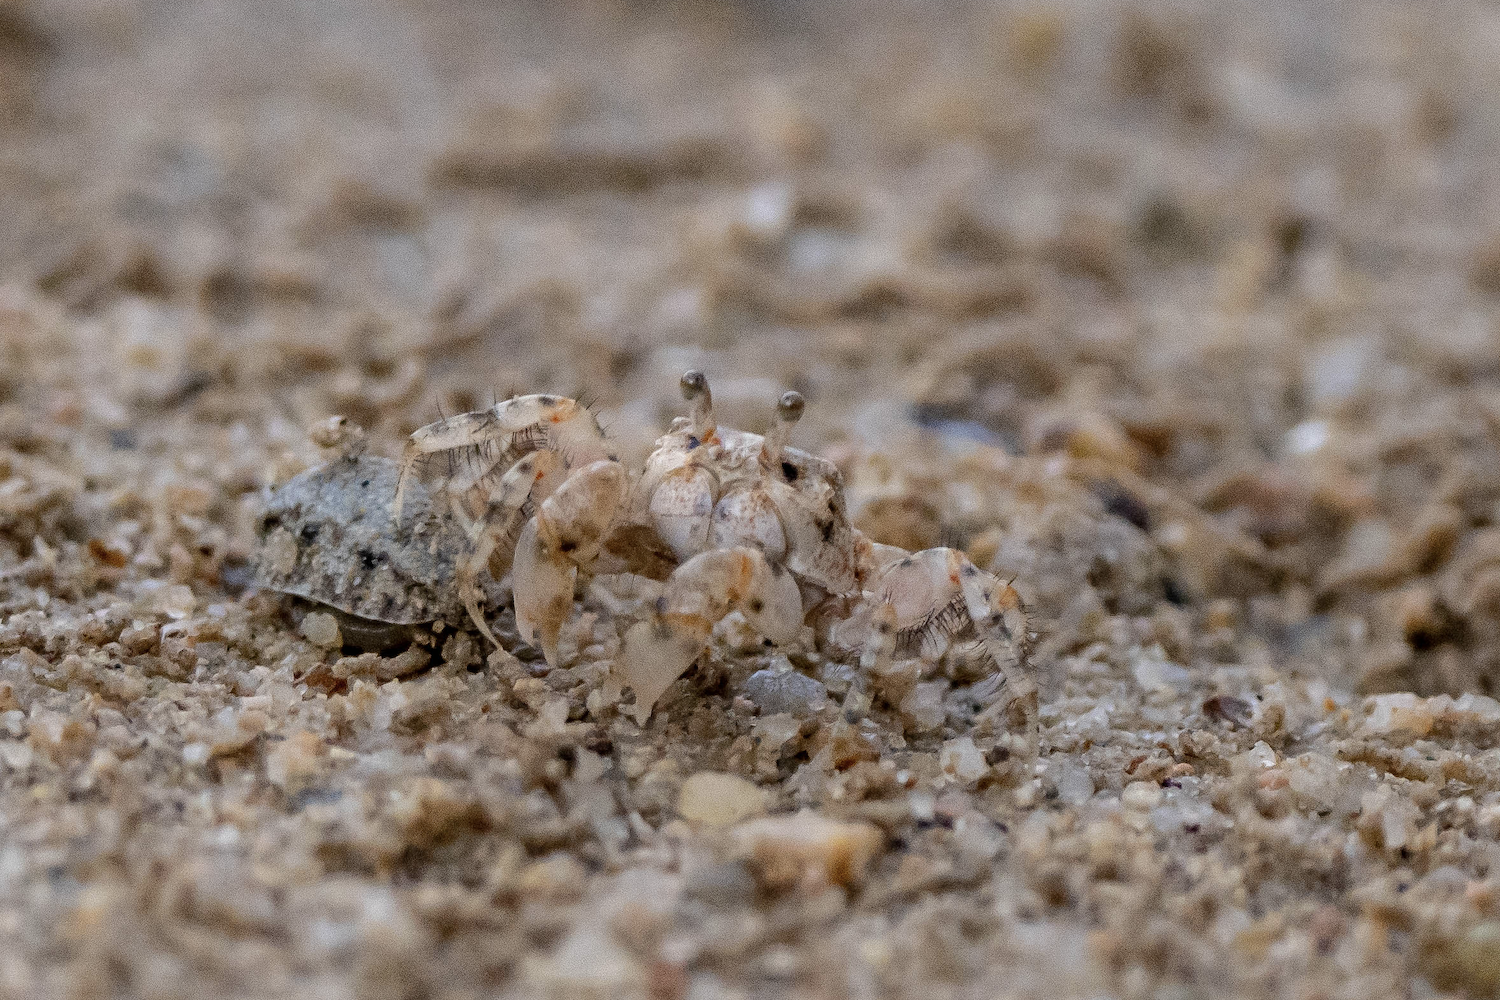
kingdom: Animalia
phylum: Arthropoda
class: Malacostraca
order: Decapoda
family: Dotillidae
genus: Scopimera
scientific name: Scopimera intermedia
